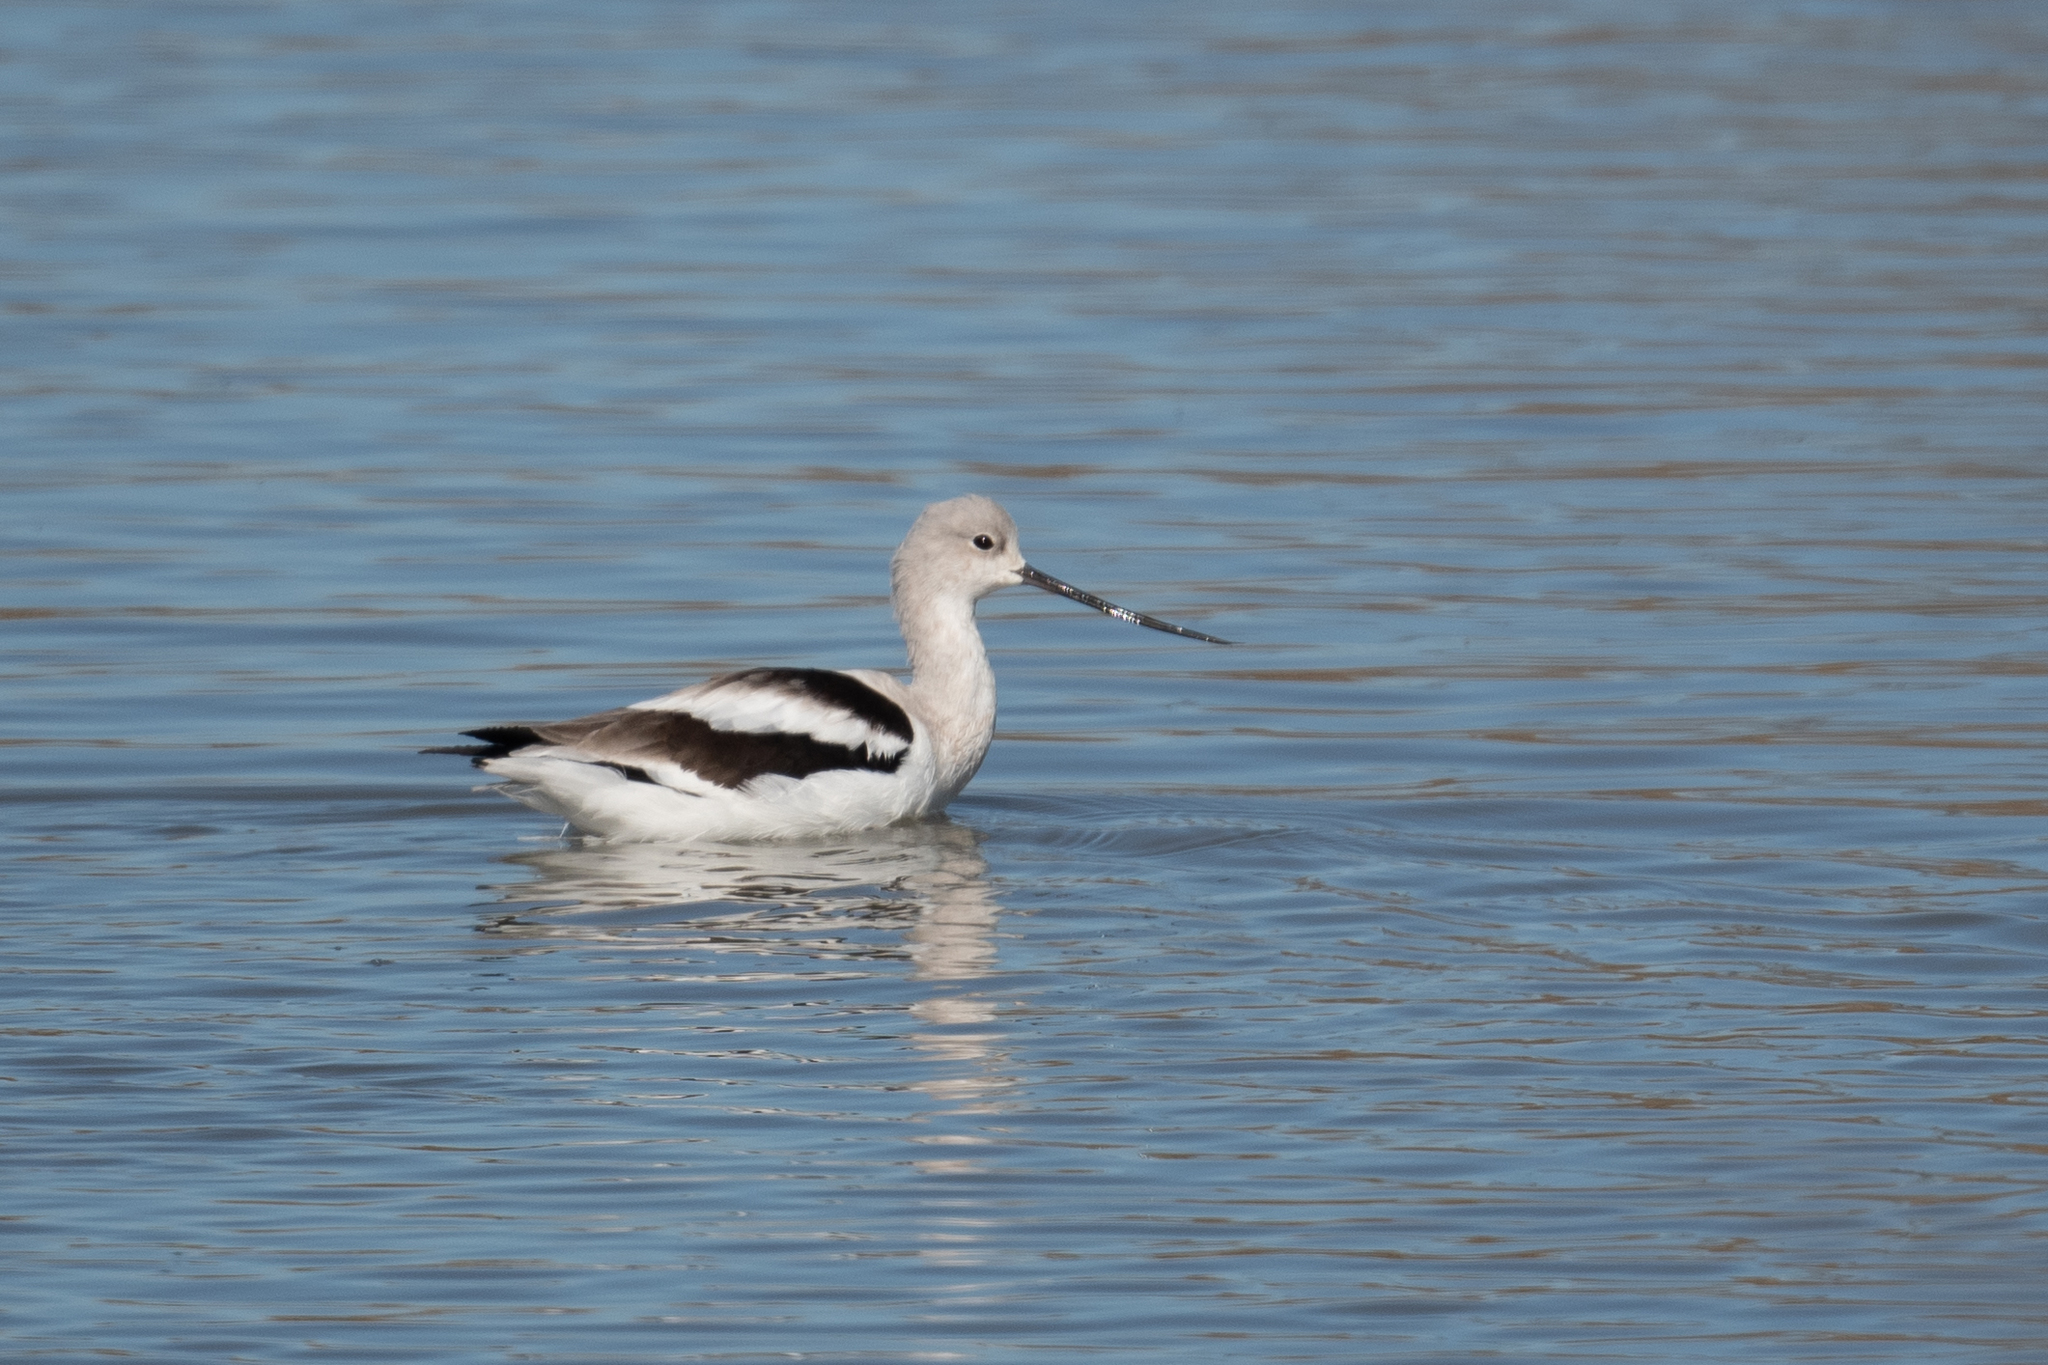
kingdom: Animalia
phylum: Chordata
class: Aves
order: Charadriiformes
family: Recurvirostridae
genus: Recurvirostra
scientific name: Recurvirostra americana
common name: American avocet
